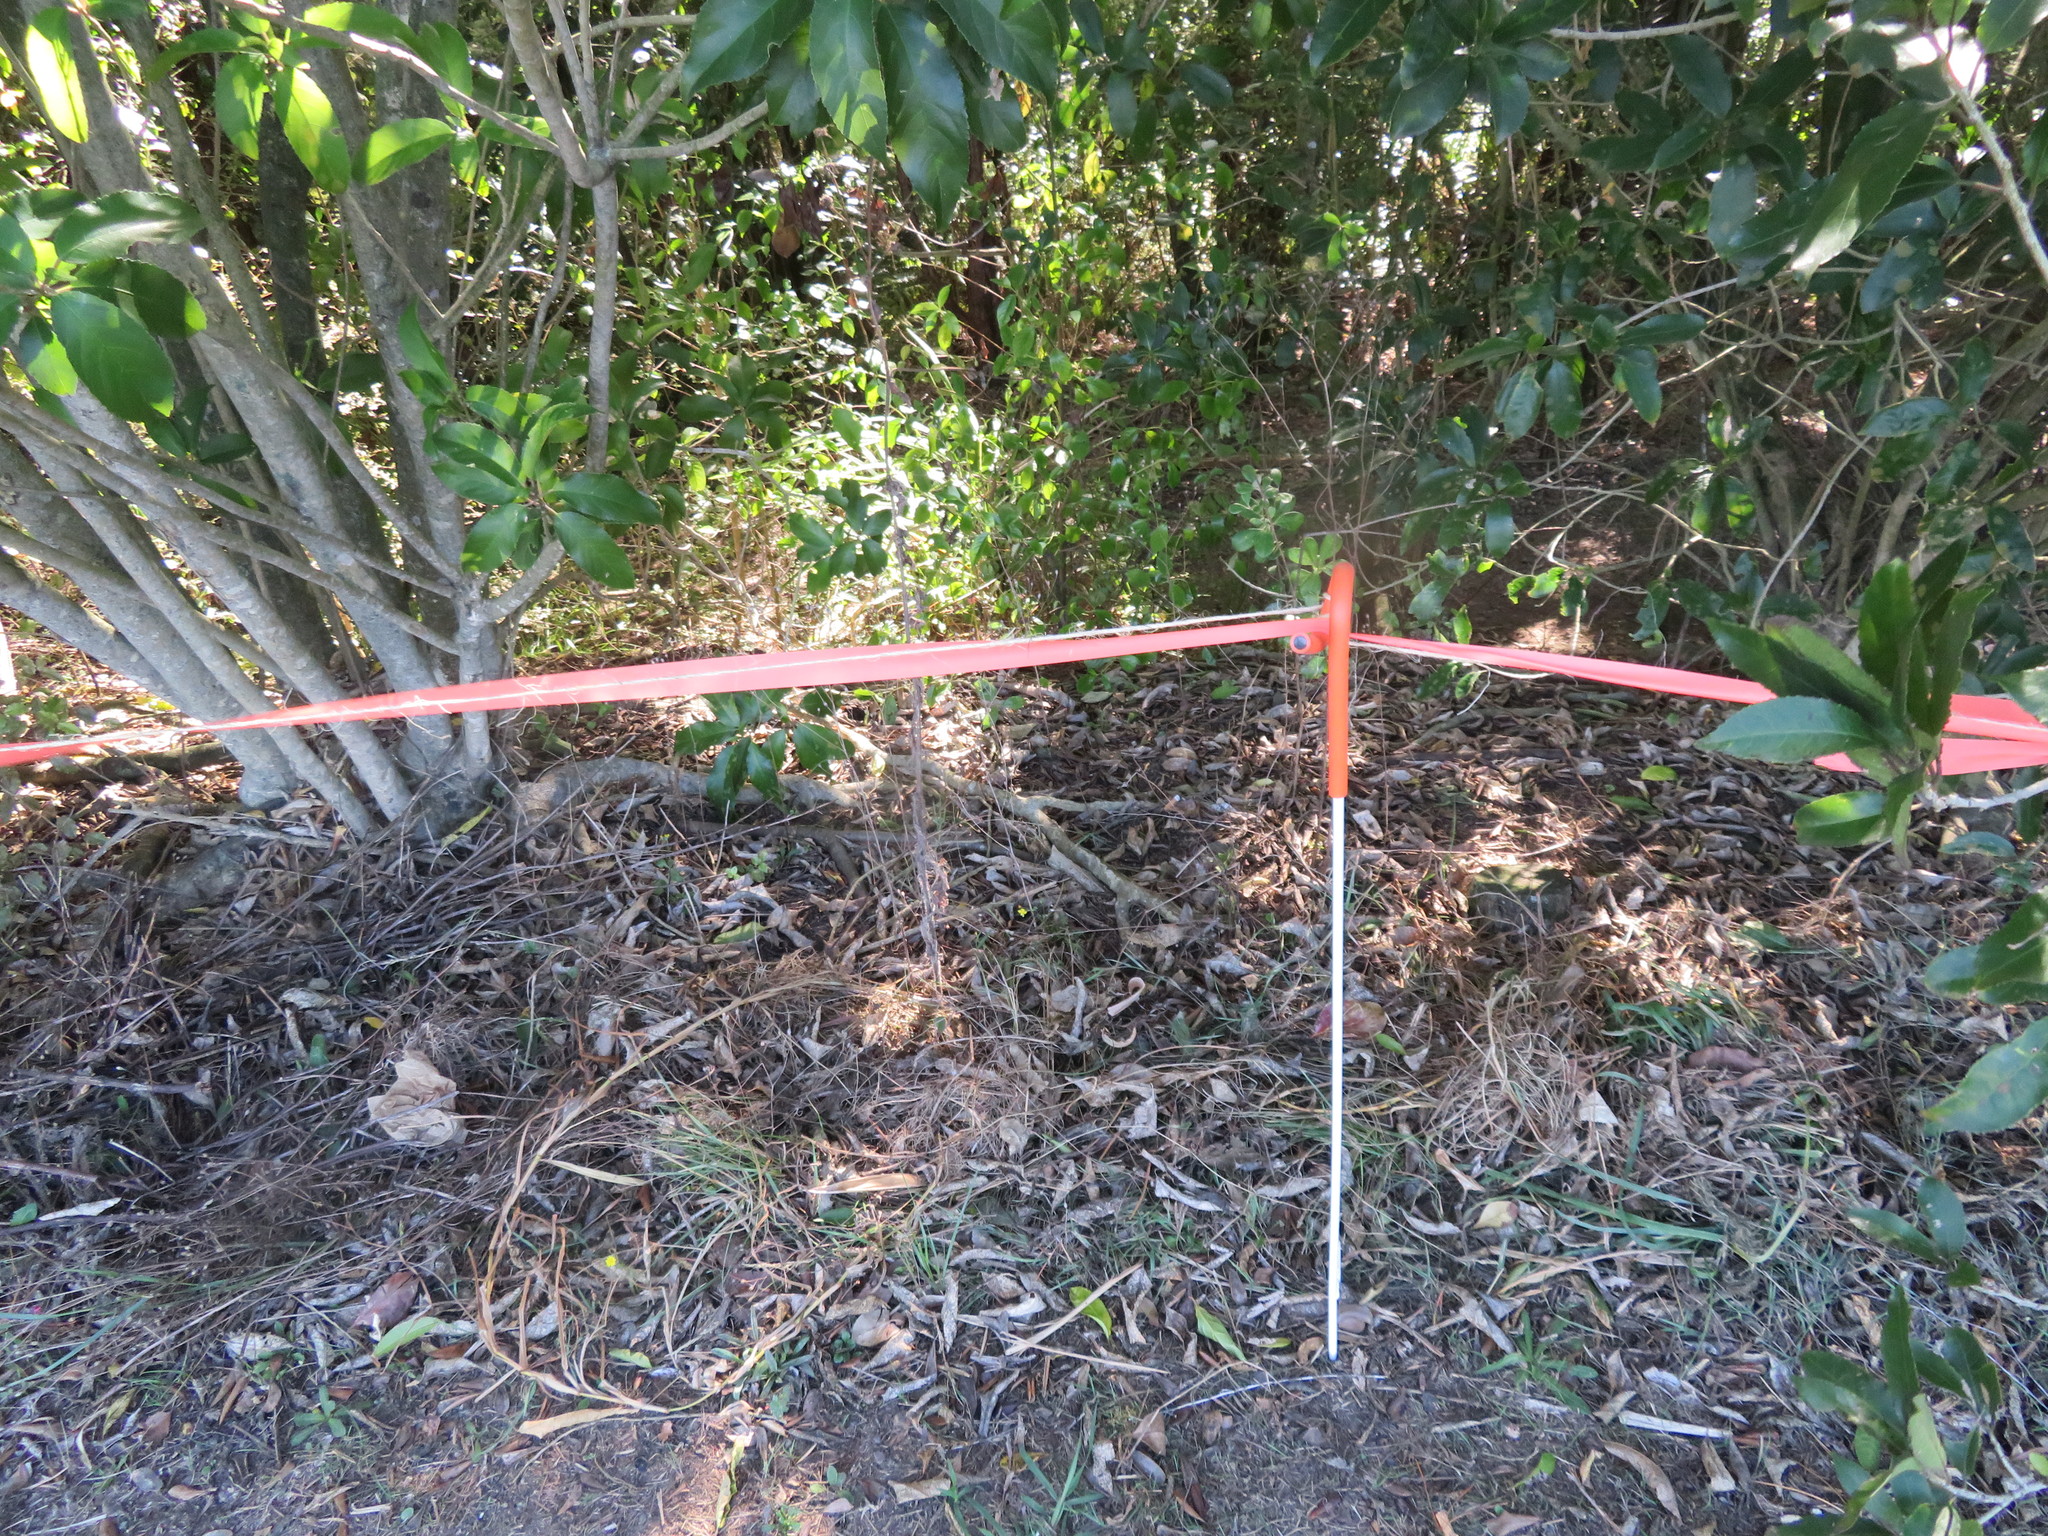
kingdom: Plantae
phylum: Tracheophyta
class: Magnoliopsida
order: Malpighiales
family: Violaceae
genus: Melicytus
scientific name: Melicytus ramiflorus
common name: Mahoe
